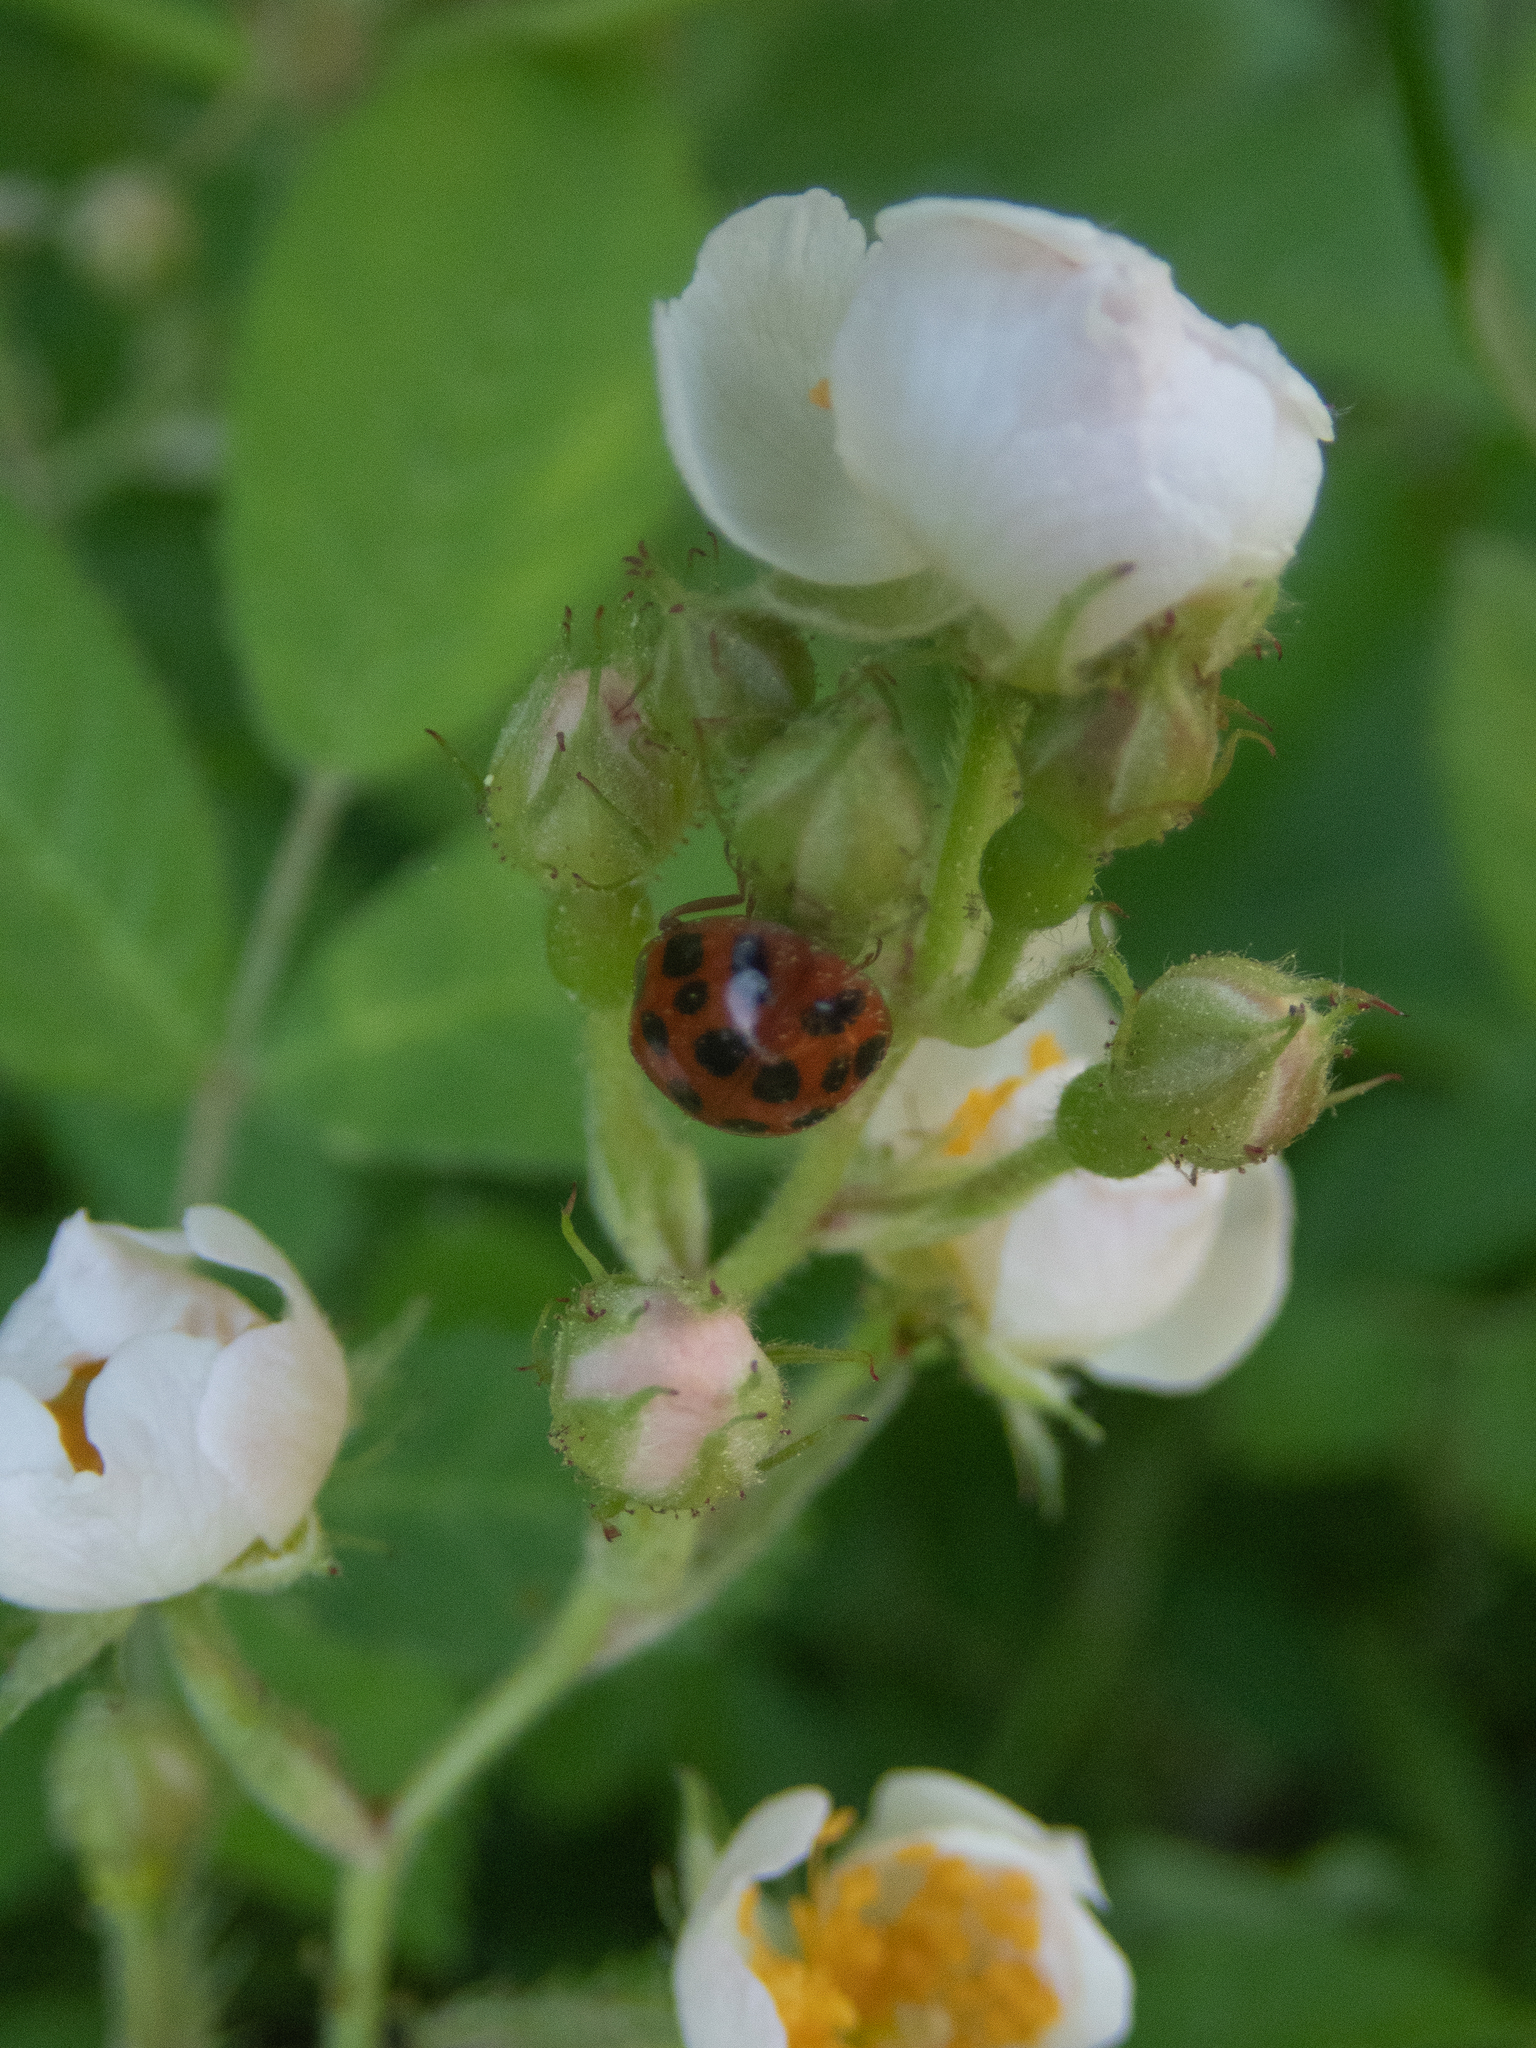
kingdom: Animalia
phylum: Arthropoda
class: Insecta
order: Coleoptera
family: Coccinellidae
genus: Harmonia
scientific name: Harmonia axyridis
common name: Harlequin ladybird
